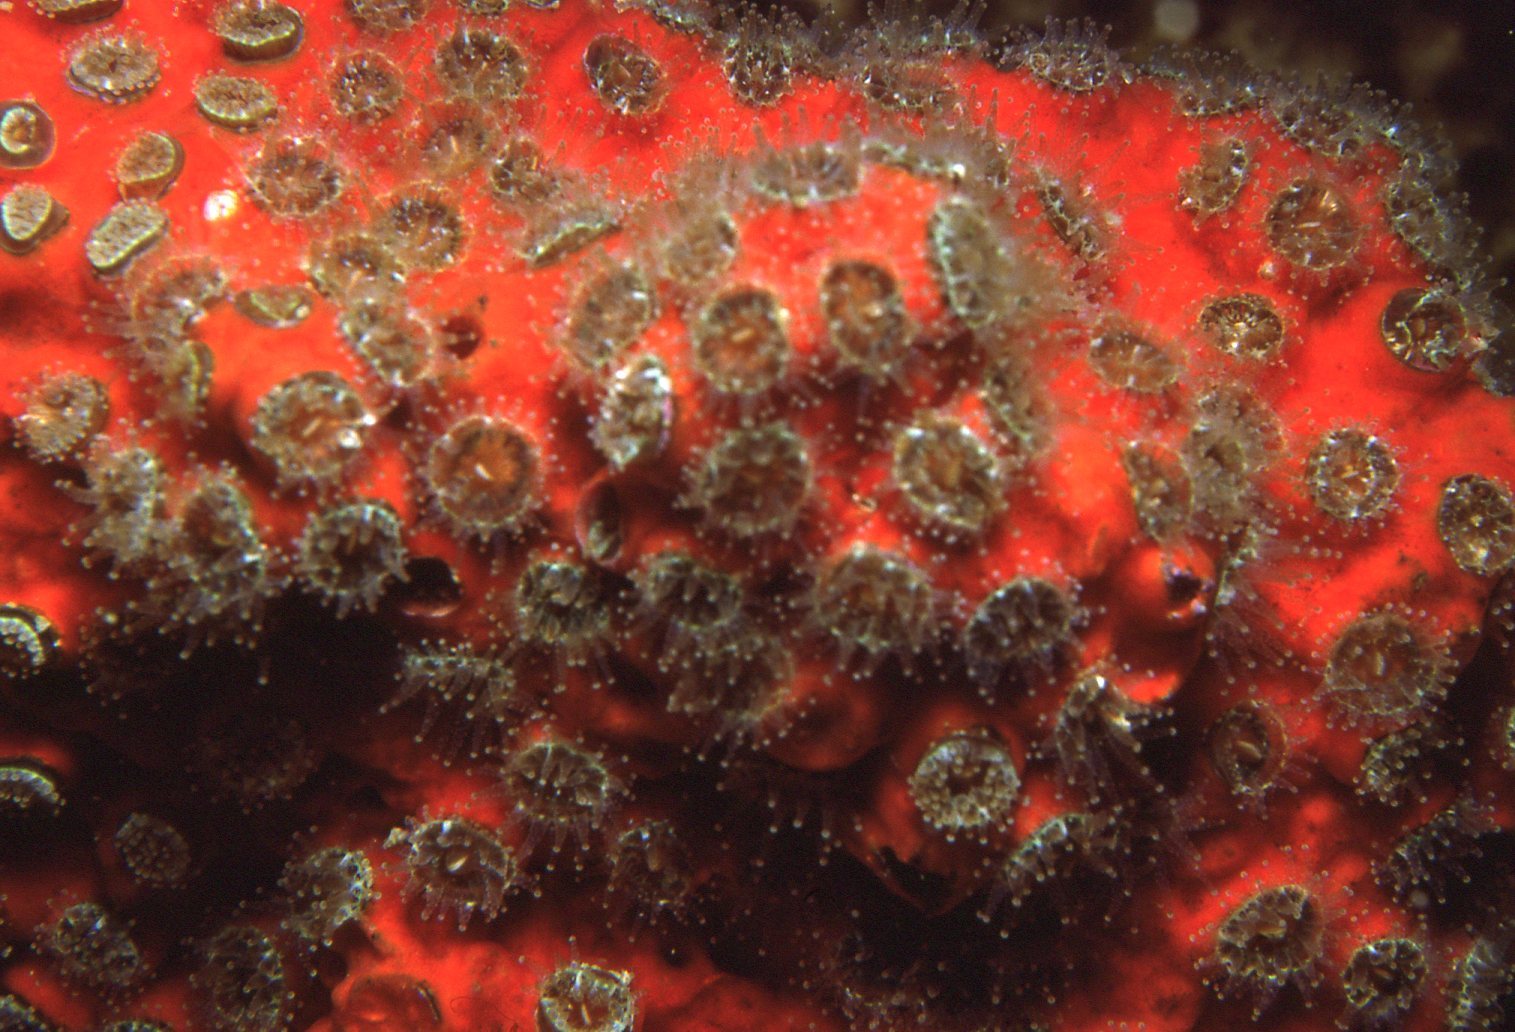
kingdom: Animalia
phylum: Cnidaria
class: Anthozoa
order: Scleractinia
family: Rhizangiidae
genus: Culicia
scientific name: Culicia tenella
